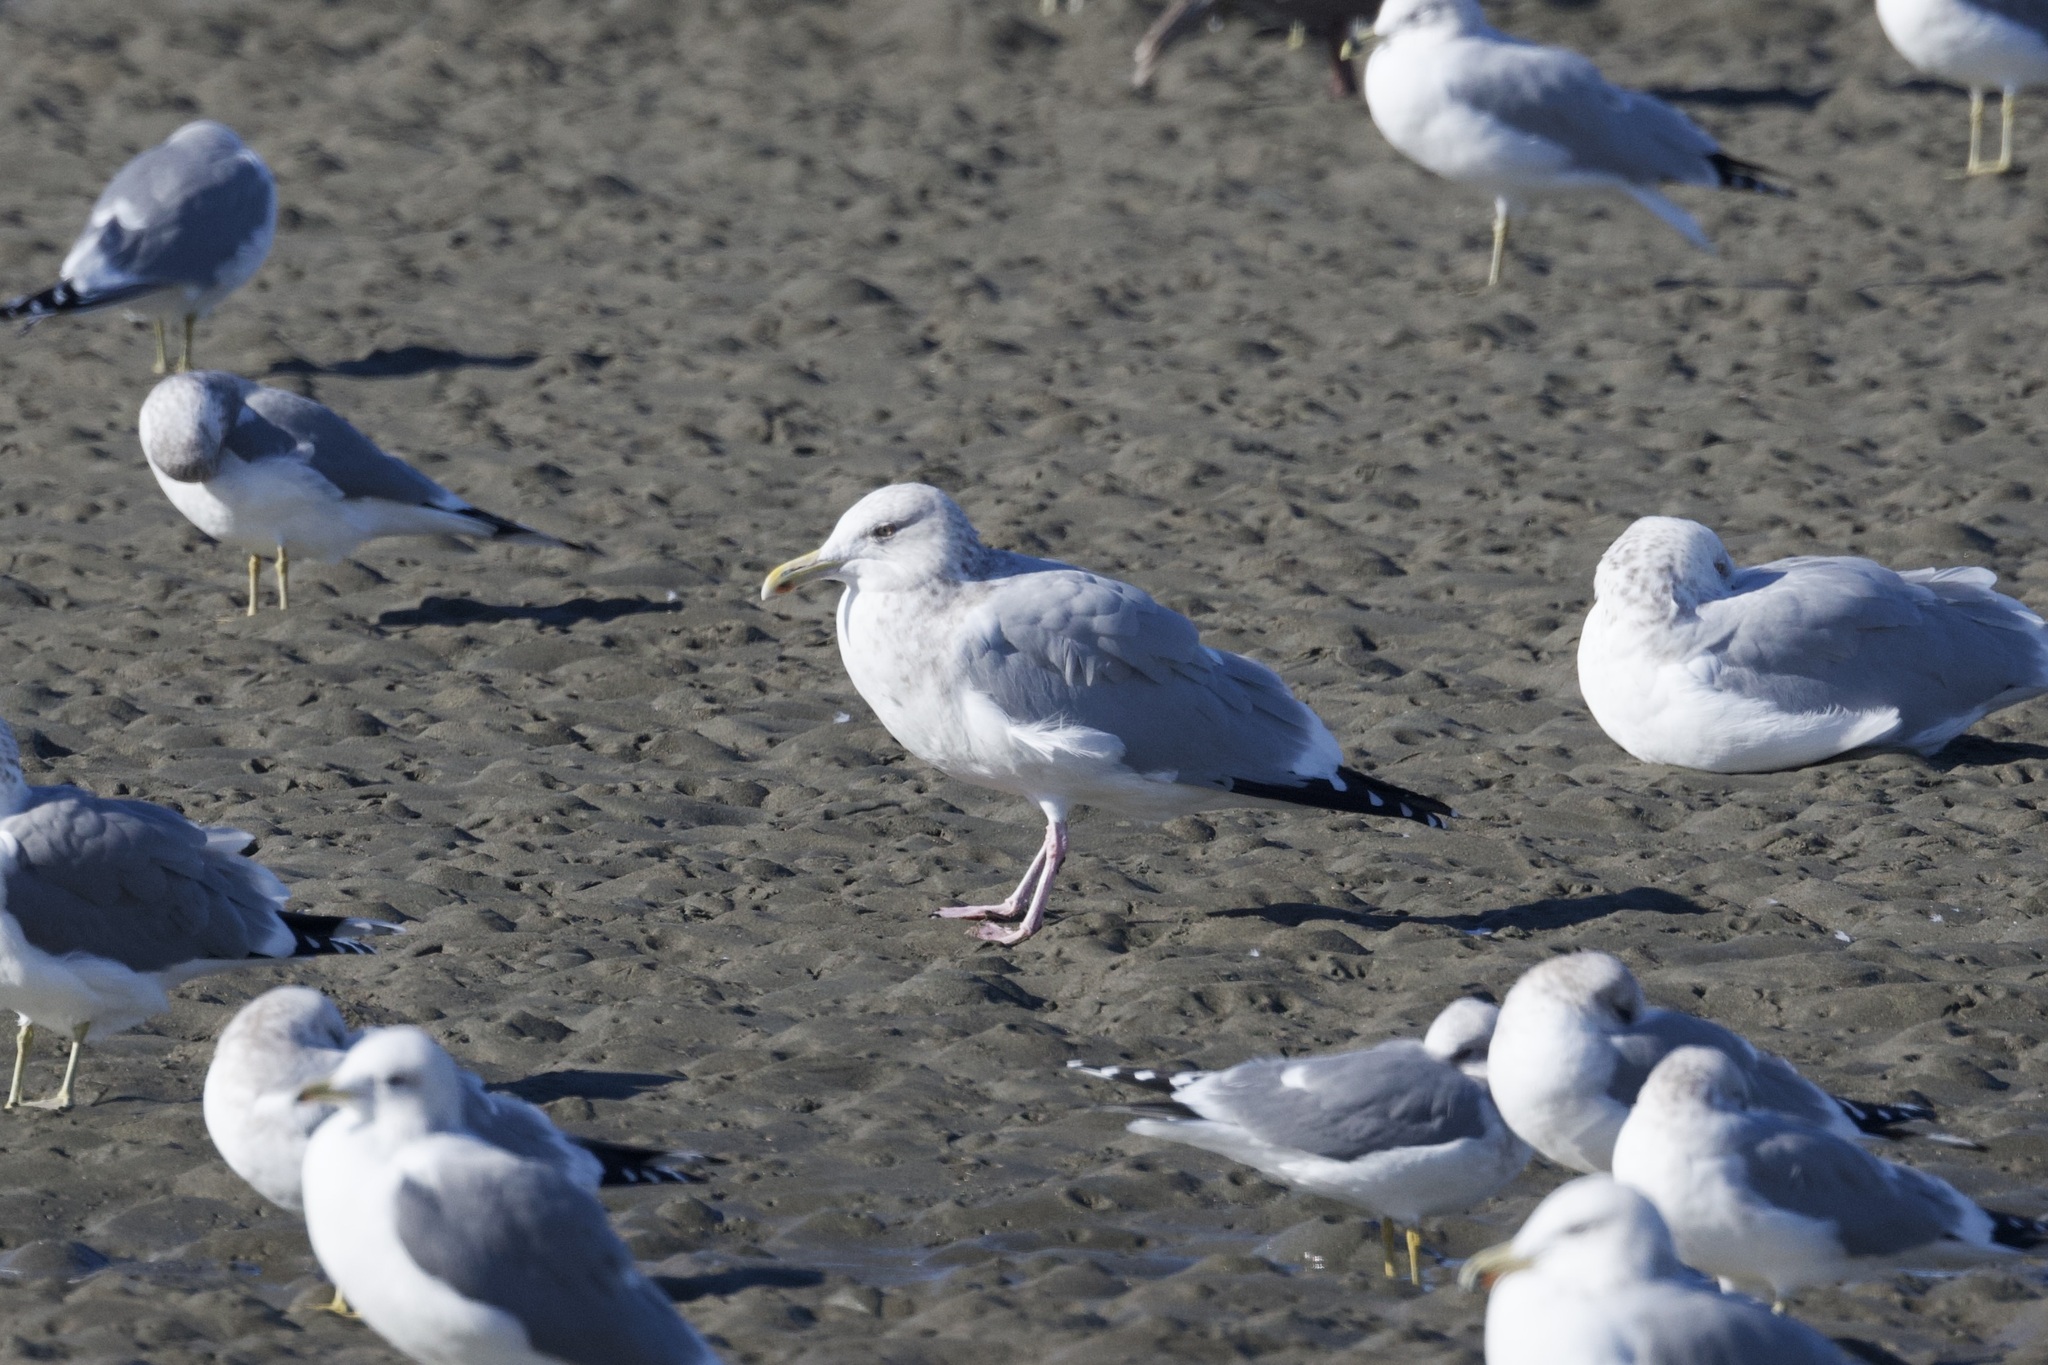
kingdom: Animalia
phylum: Chordata
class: Aves
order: Charadriiformes
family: Laridae
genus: Larus
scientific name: Larus argentatus
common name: Herring gull
